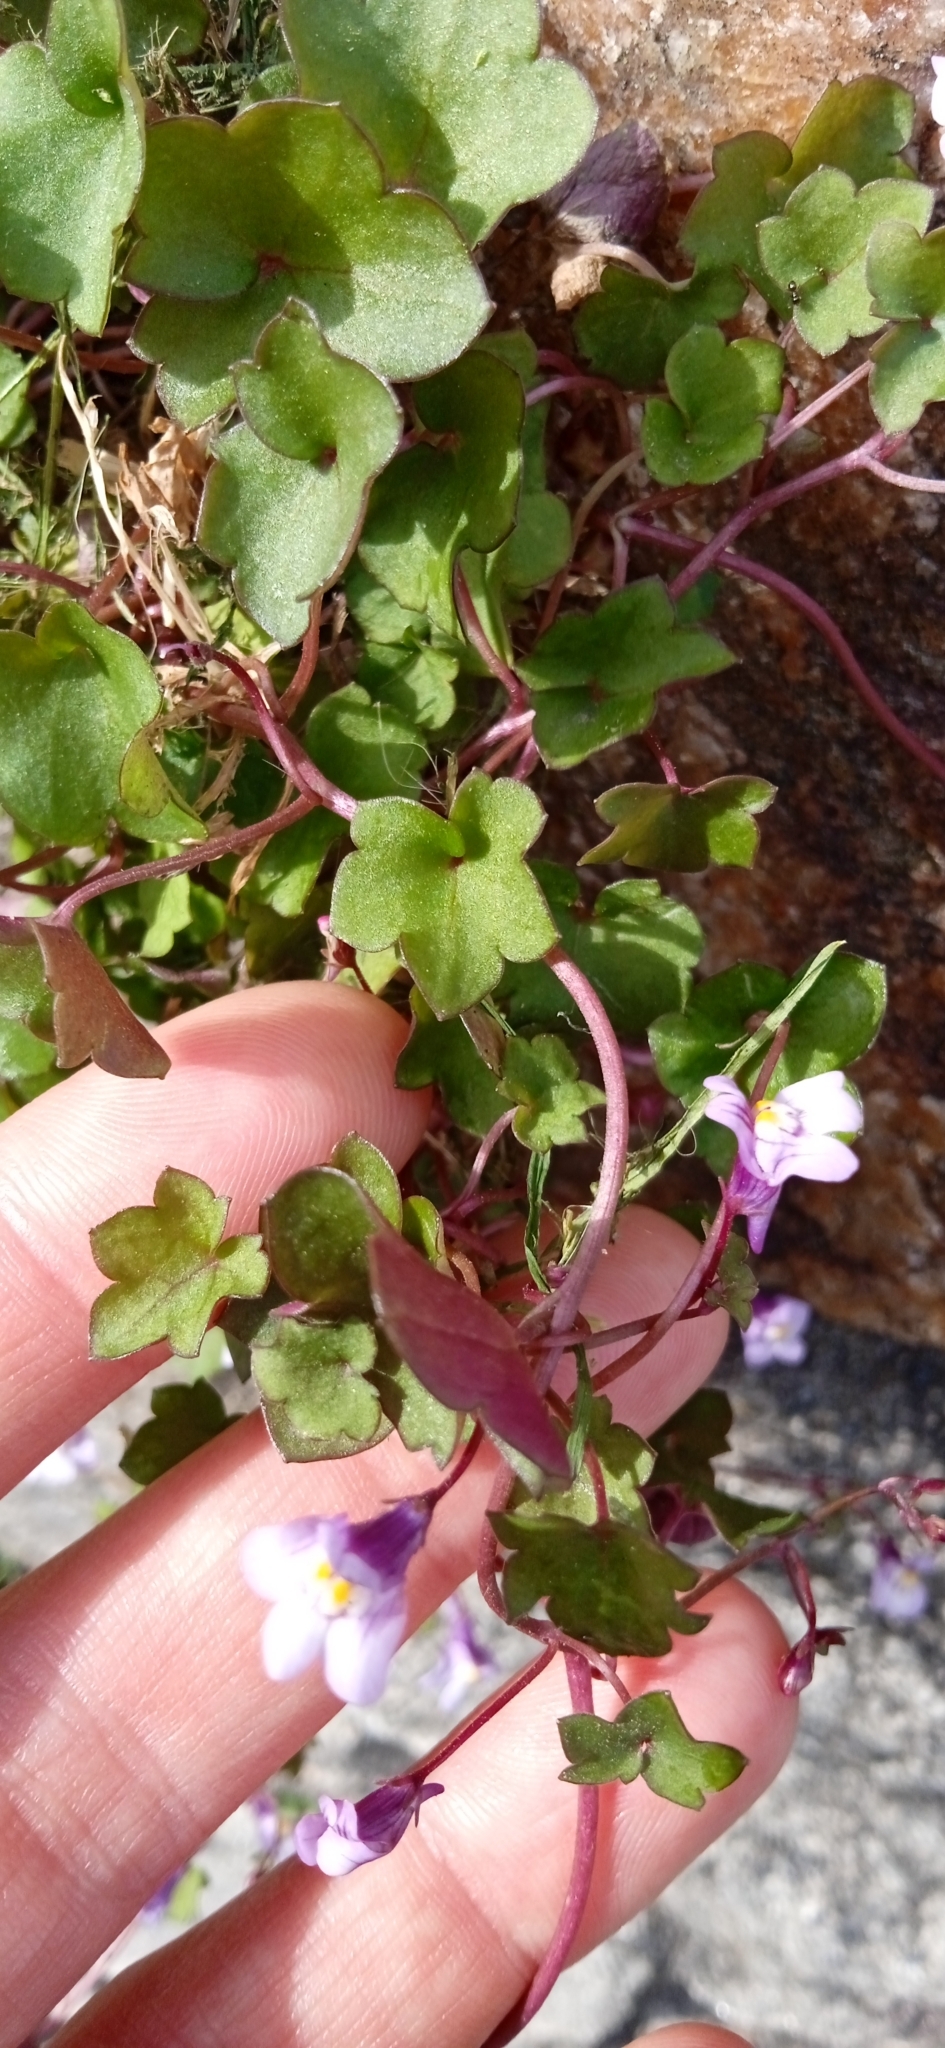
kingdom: Plantae
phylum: Tracheophyta
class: Magnoliopsida
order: Lamiales
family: Plantaginaceae
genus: Cymbalaria
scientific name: Cymbalaria muralis
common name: Ivy-leaved toadflax
